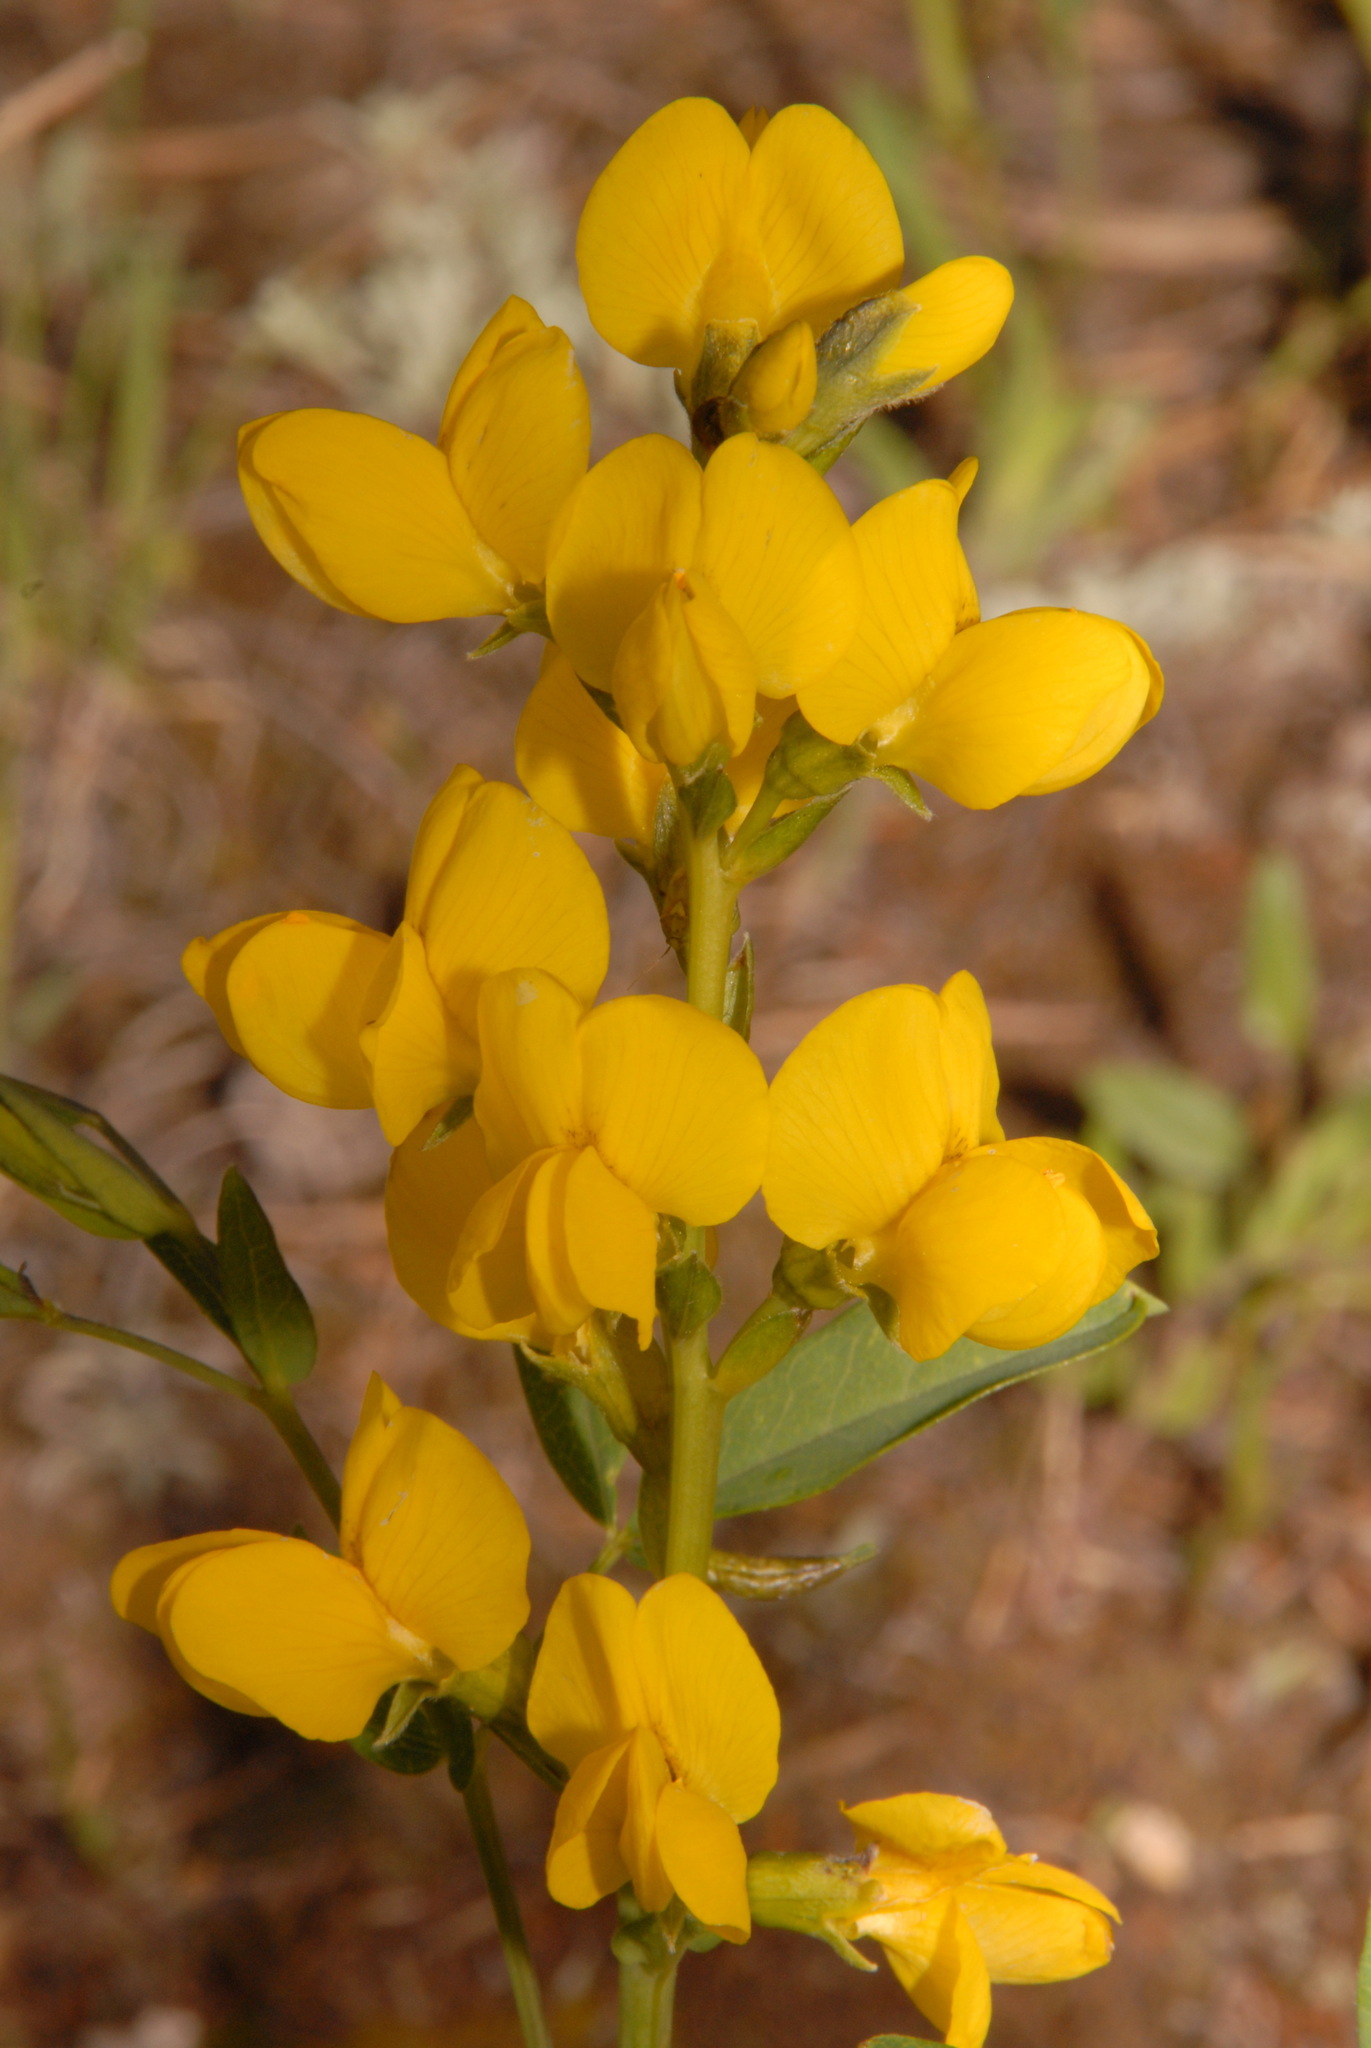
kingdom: Plantae
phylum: Tracheophyta
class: Magnoliopsida
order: Fabales
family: Fabaceae
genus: Thermopsis
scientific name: Thermopsis rhombifolia
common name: Circle-pod-pea
